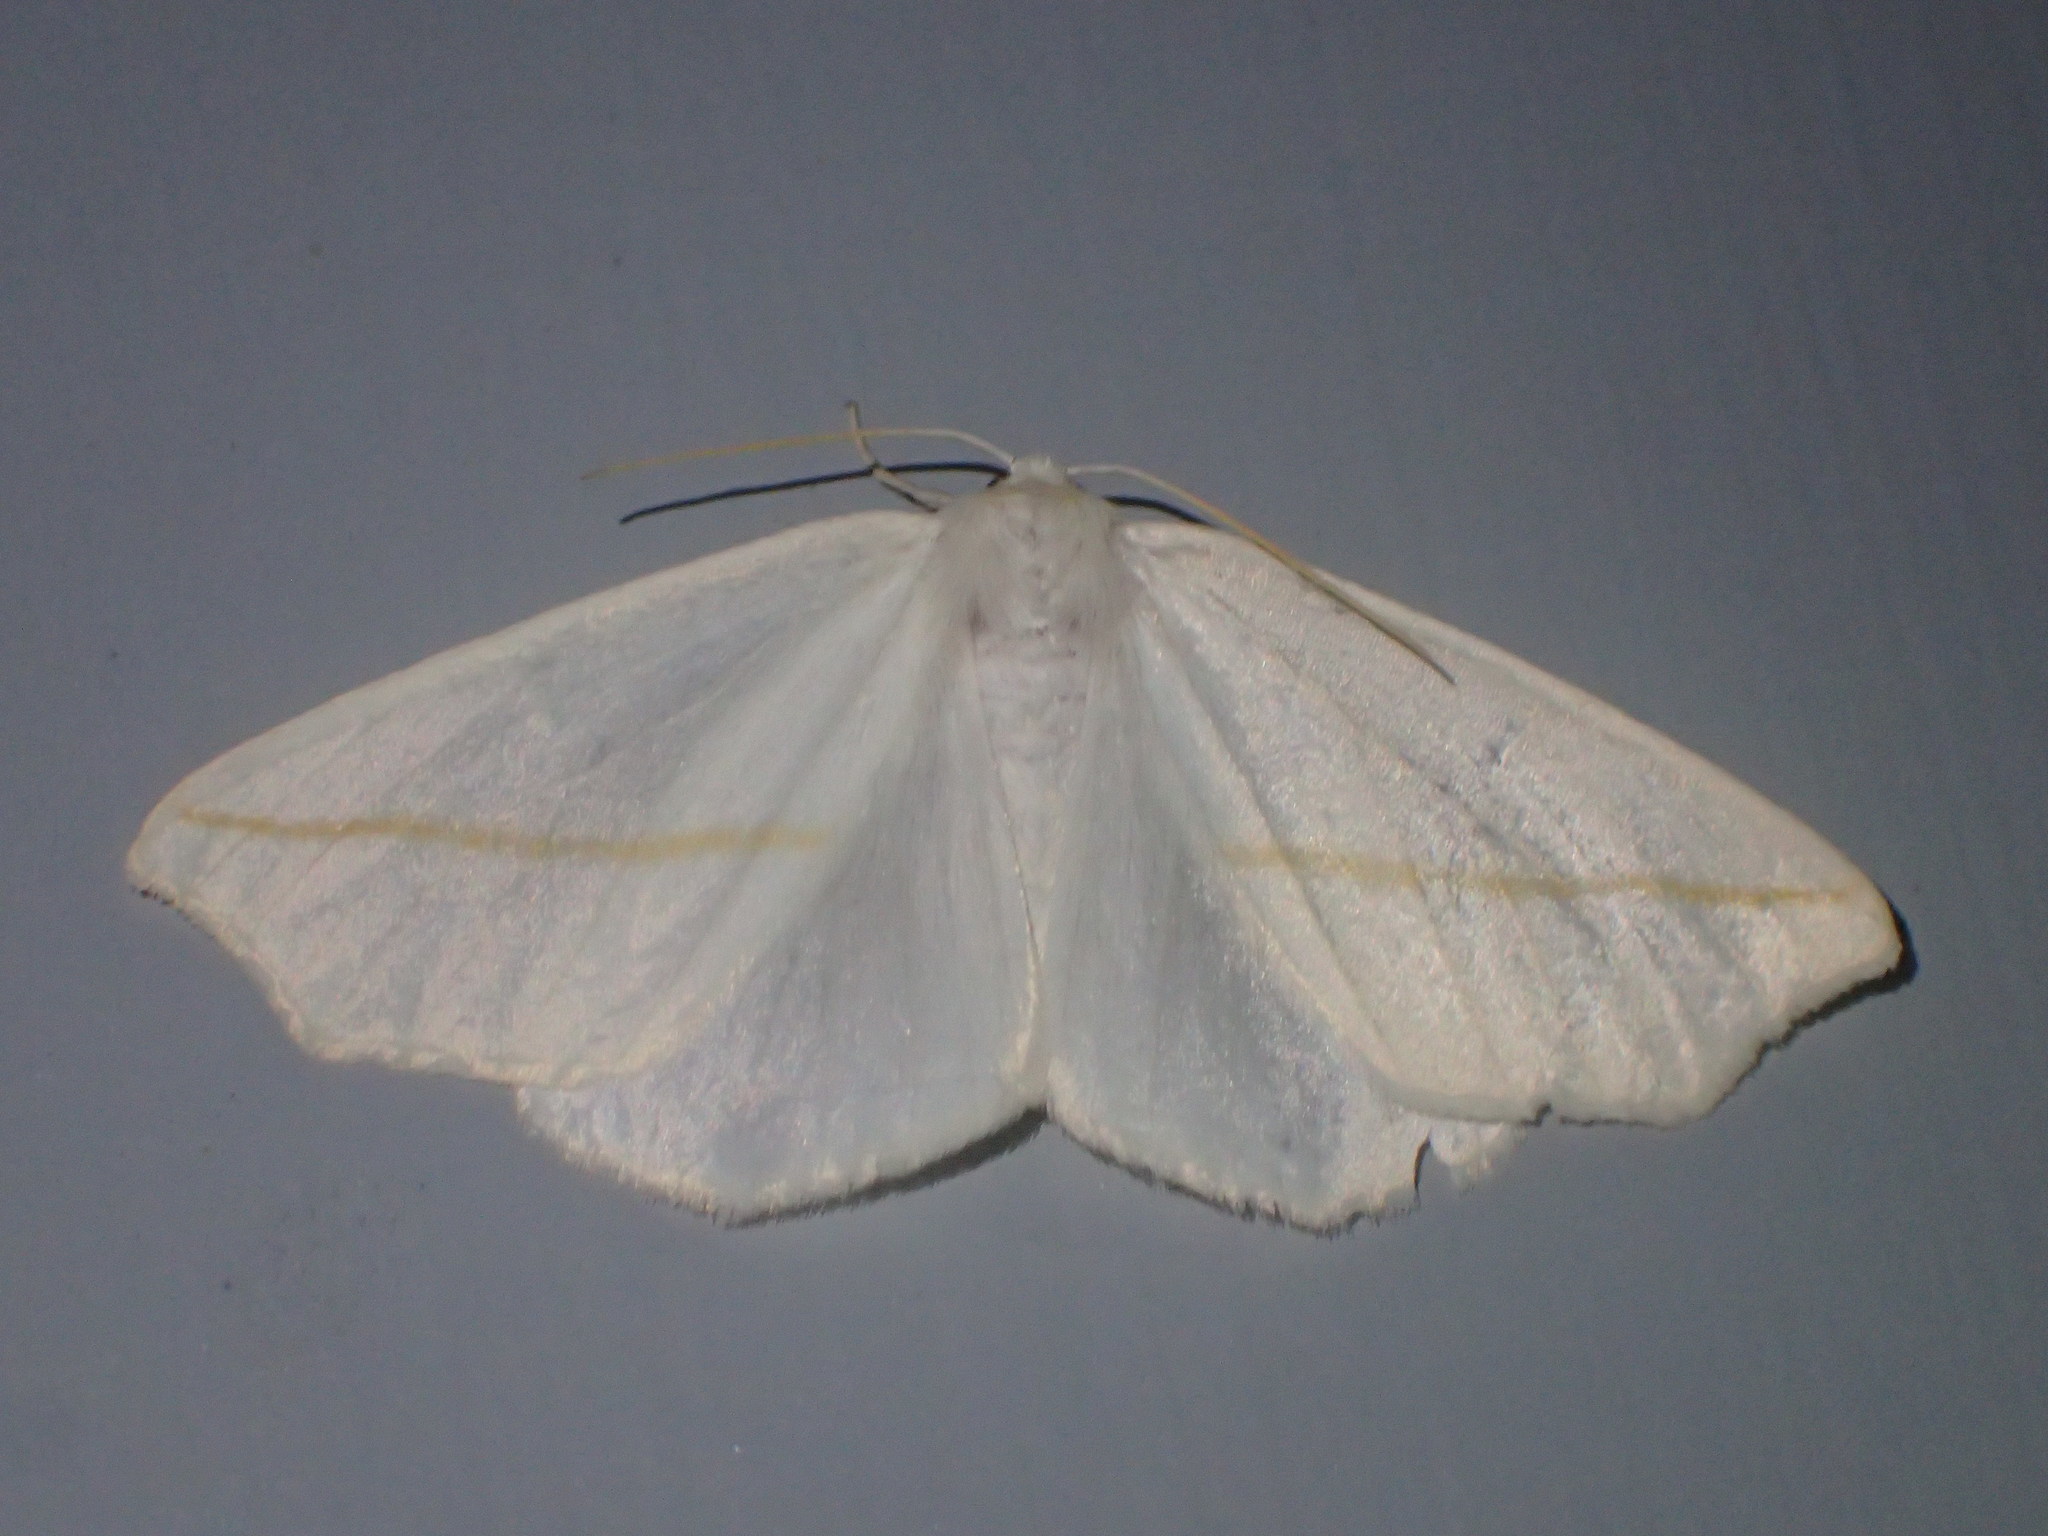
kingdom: Animalia
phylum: Arthropoda
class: Insecta
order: Lepidoptera
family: Geometridae
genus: Tetracis
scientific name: Tetracis cachexiata
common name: White slant-line
